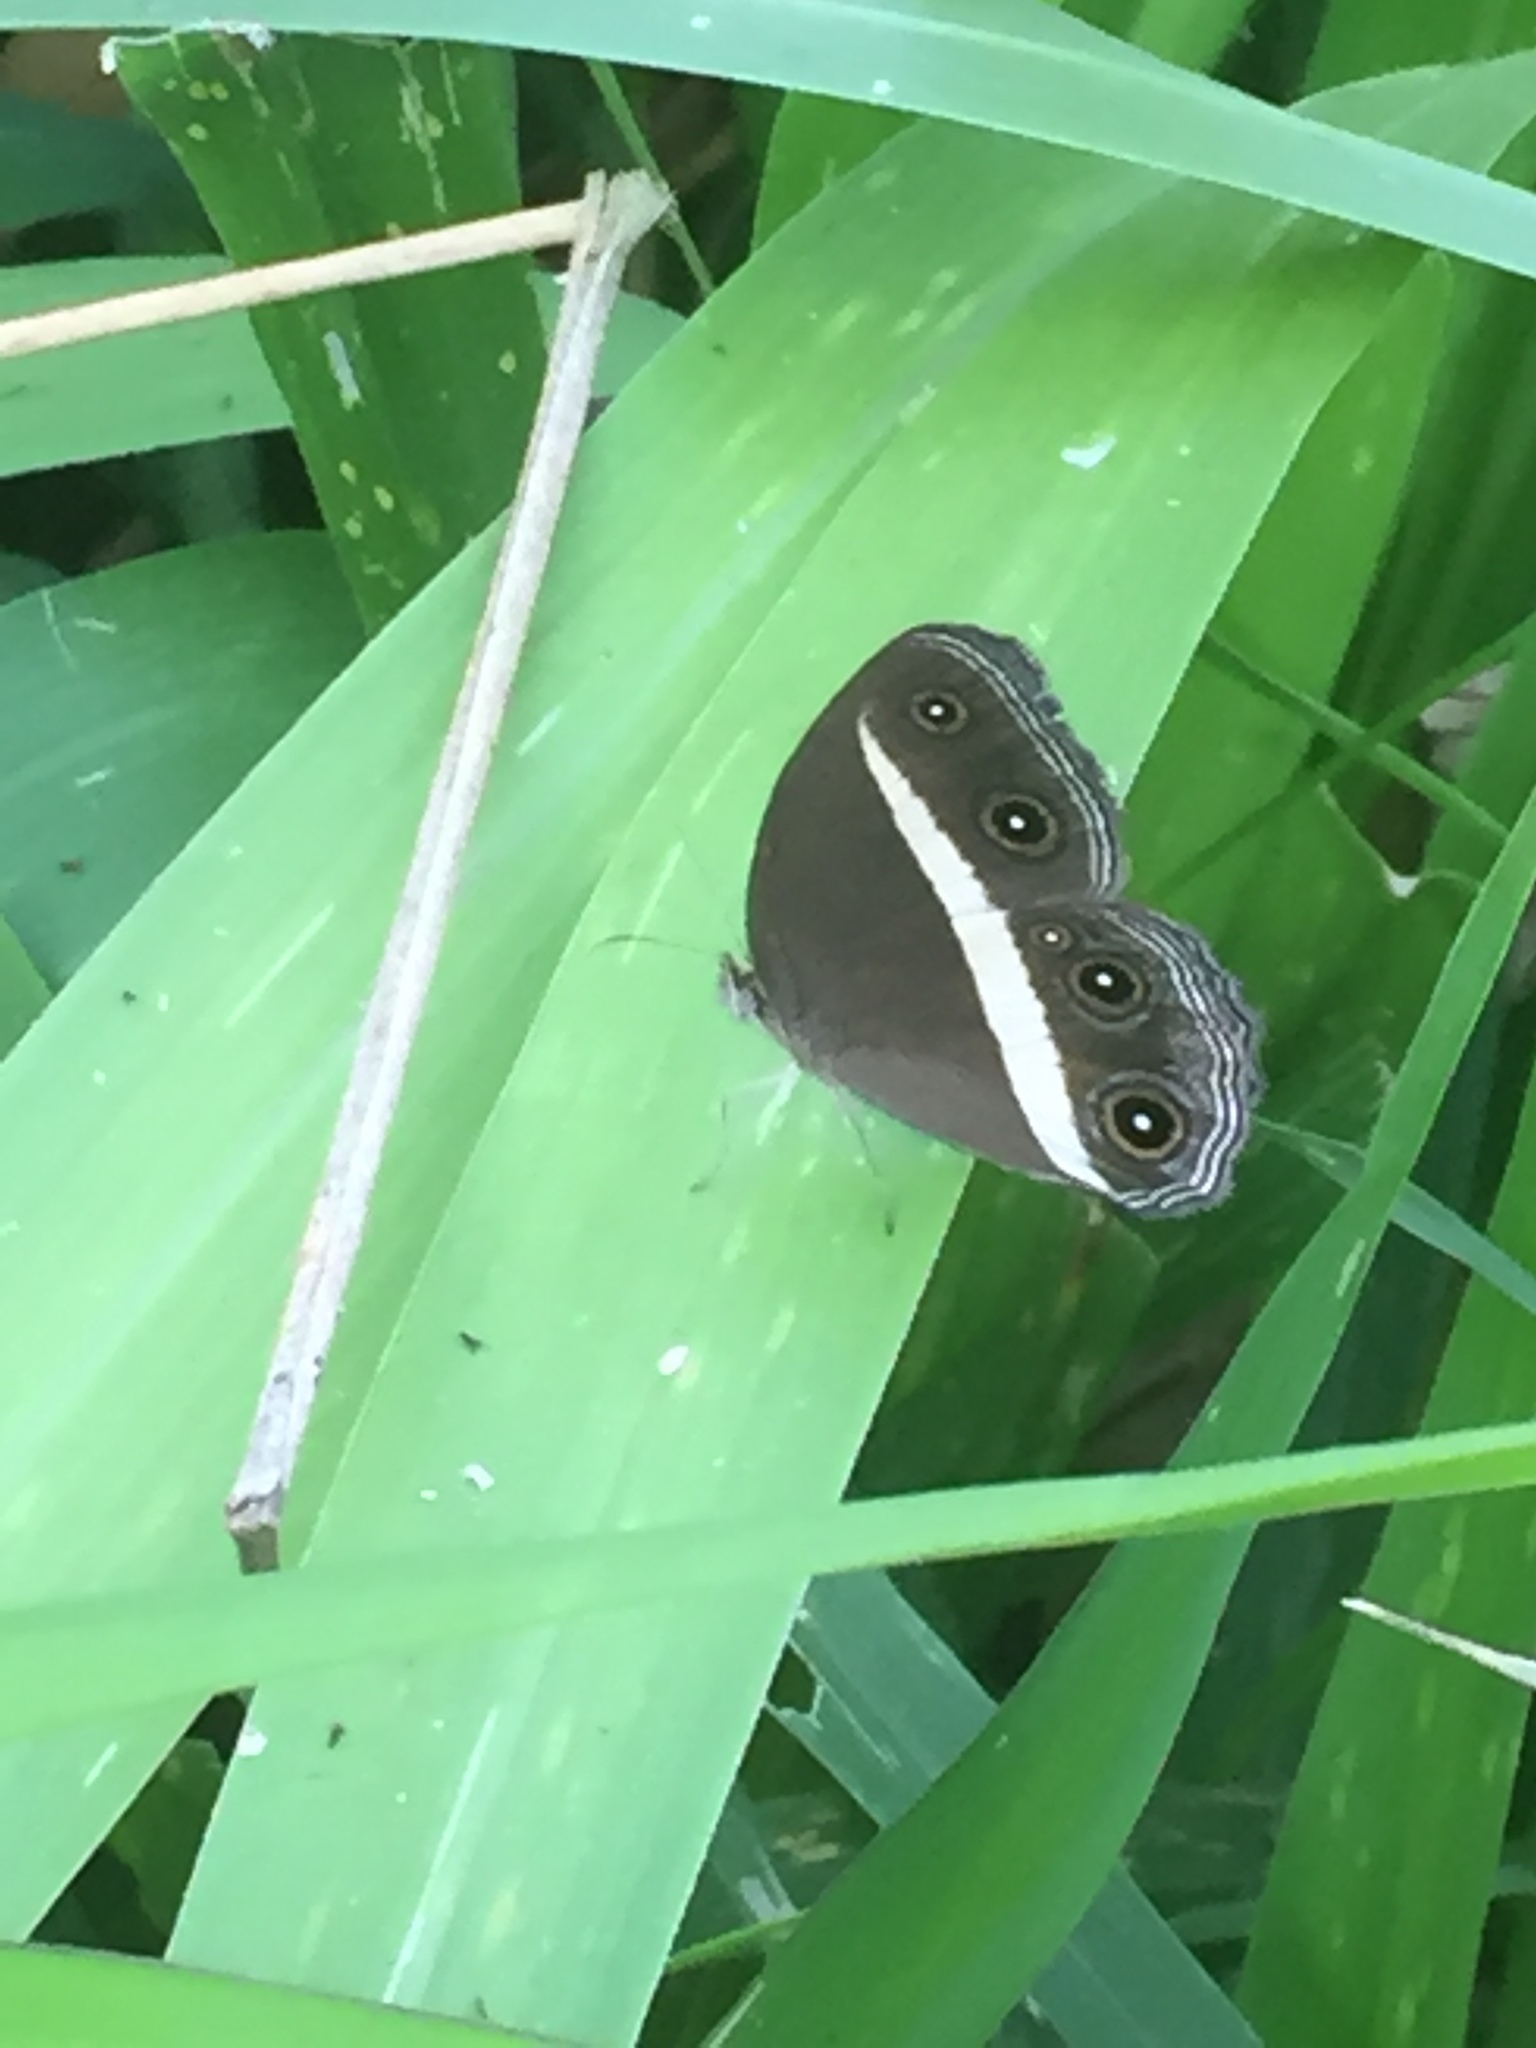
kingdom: Animalia
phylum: Arthropoda
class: Insecta
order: Lepidoptera
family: Nymphalidae
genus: Orsotriaena
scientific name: Orsotriaena medus
